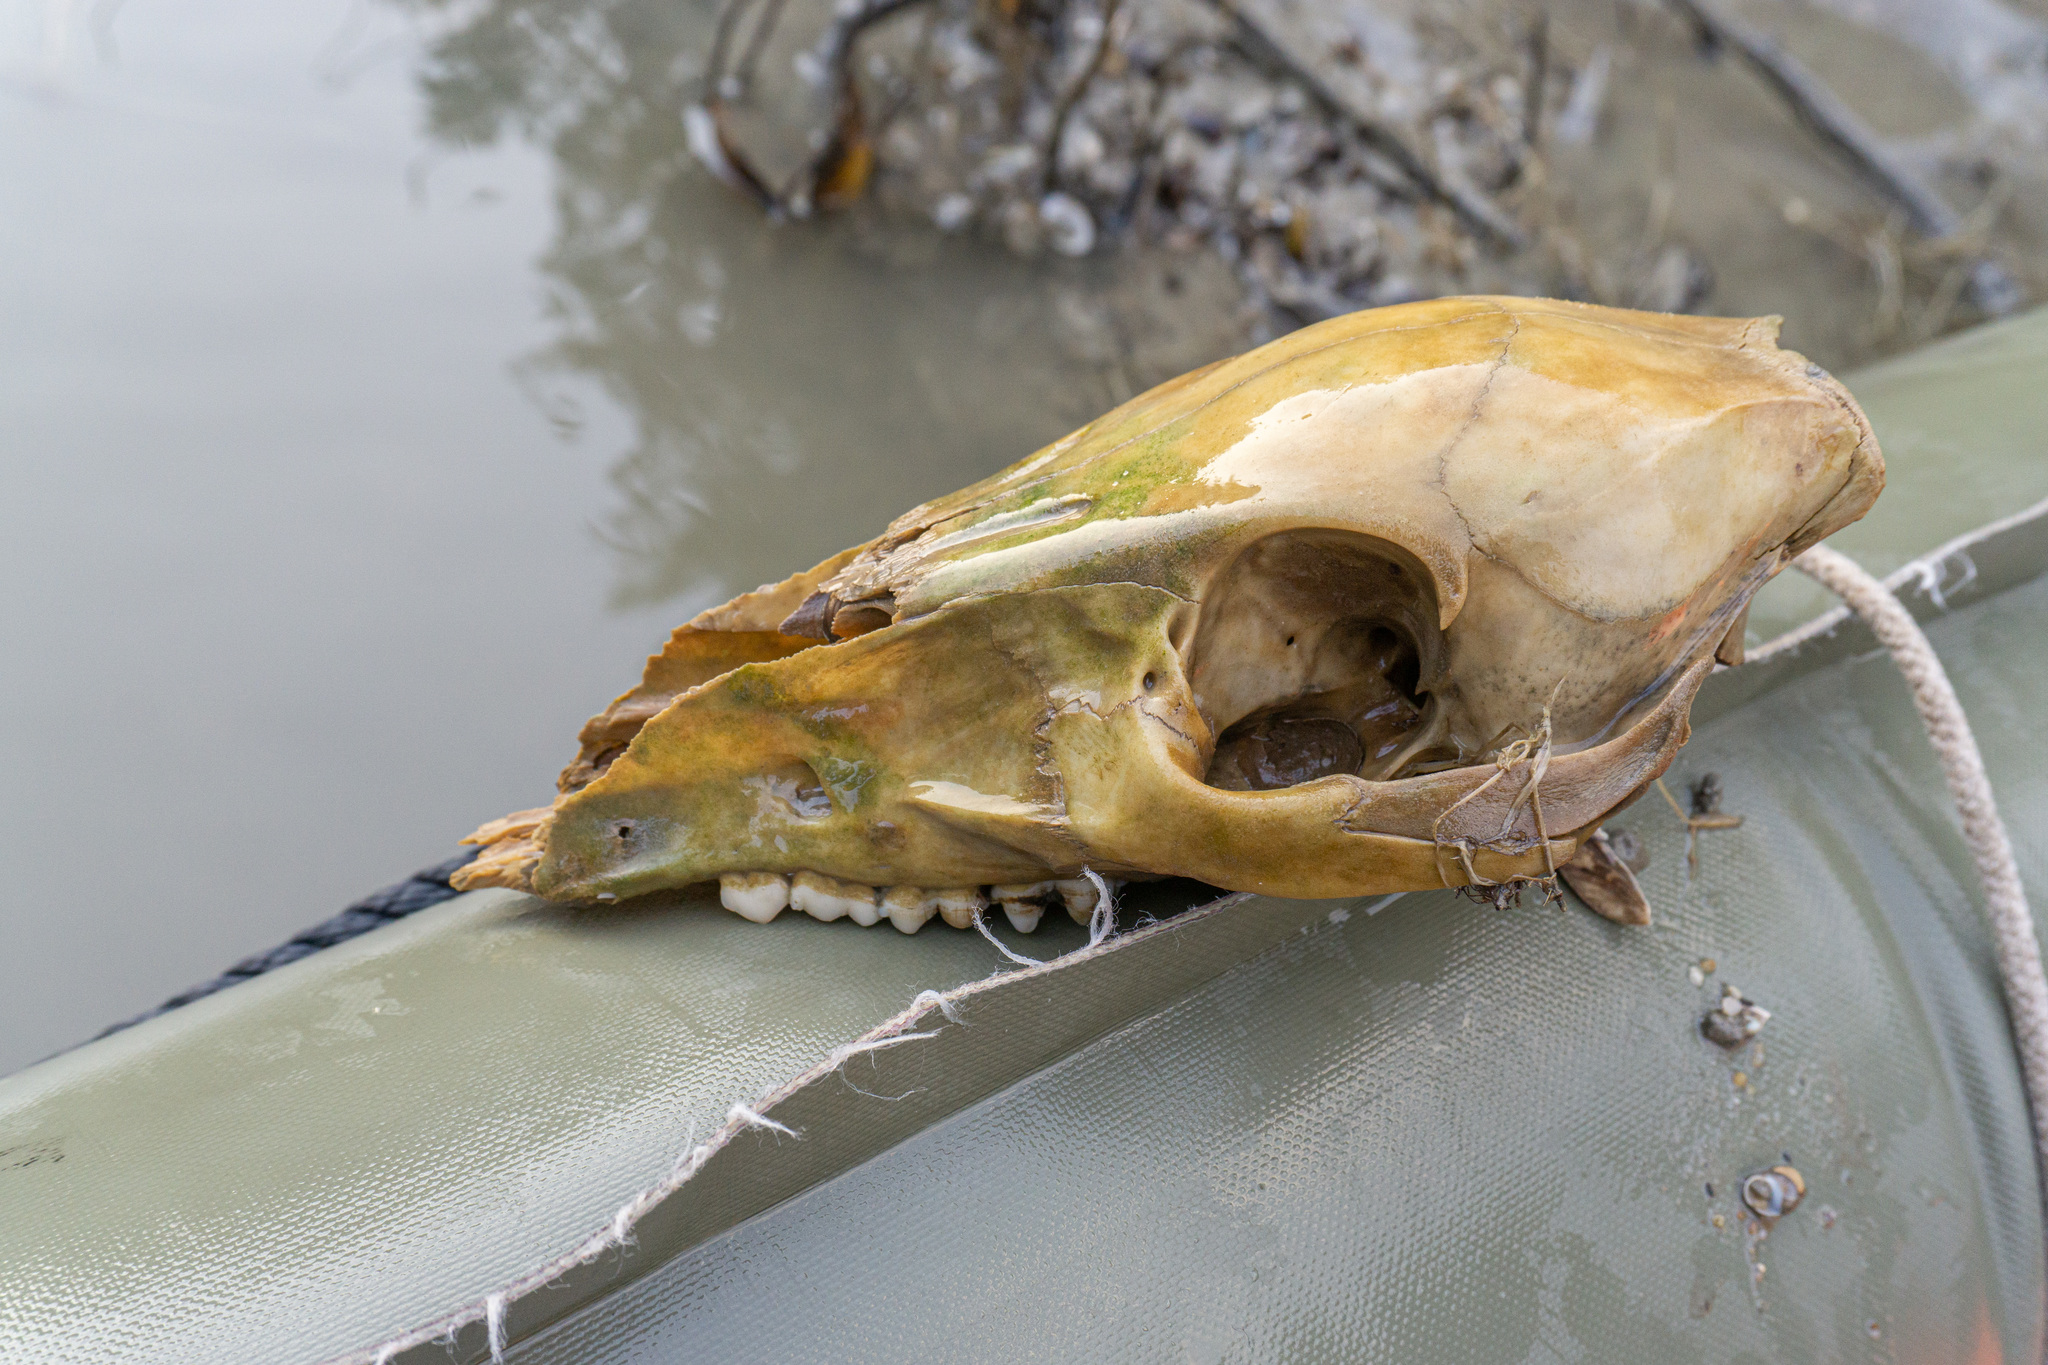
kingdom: Animalia
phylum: Chordata
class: Mammalia
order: Artiodactyla
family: Suidae
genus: Sus
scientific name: Sus scrofa
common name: Wild boar
